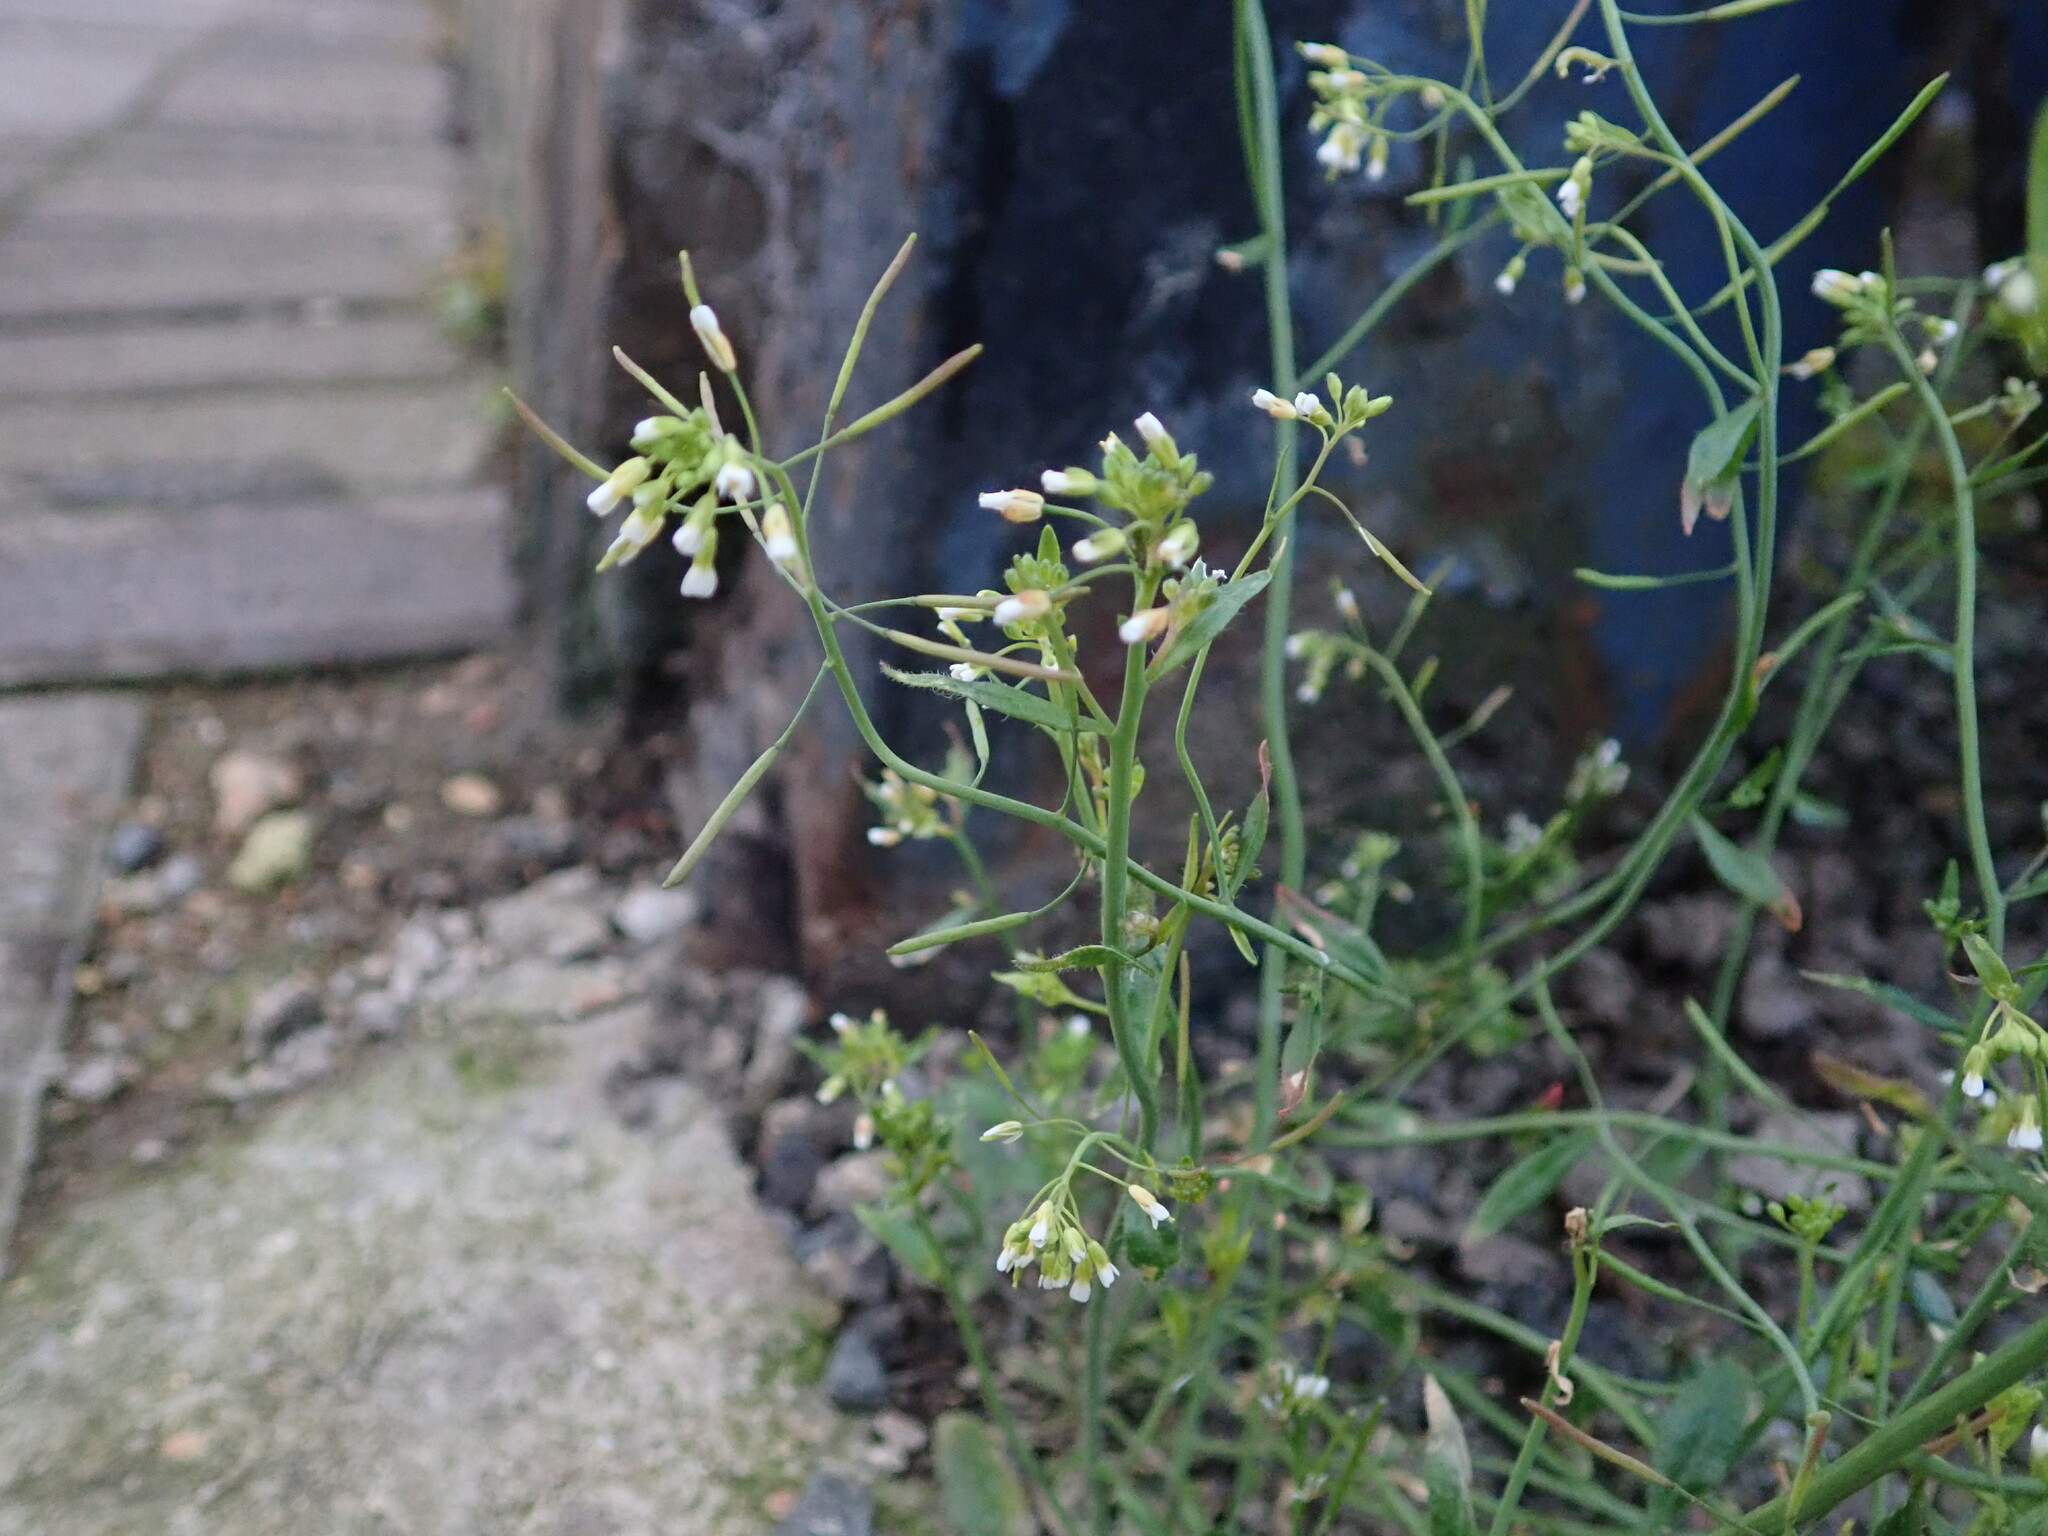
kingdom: Plantae
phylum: Tracheophyta
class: Magnoliopsida
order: Brassicales
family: Brassicaceae
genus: Arabidopsis
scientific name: Arabidopsis thaliana
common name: Thale cress
